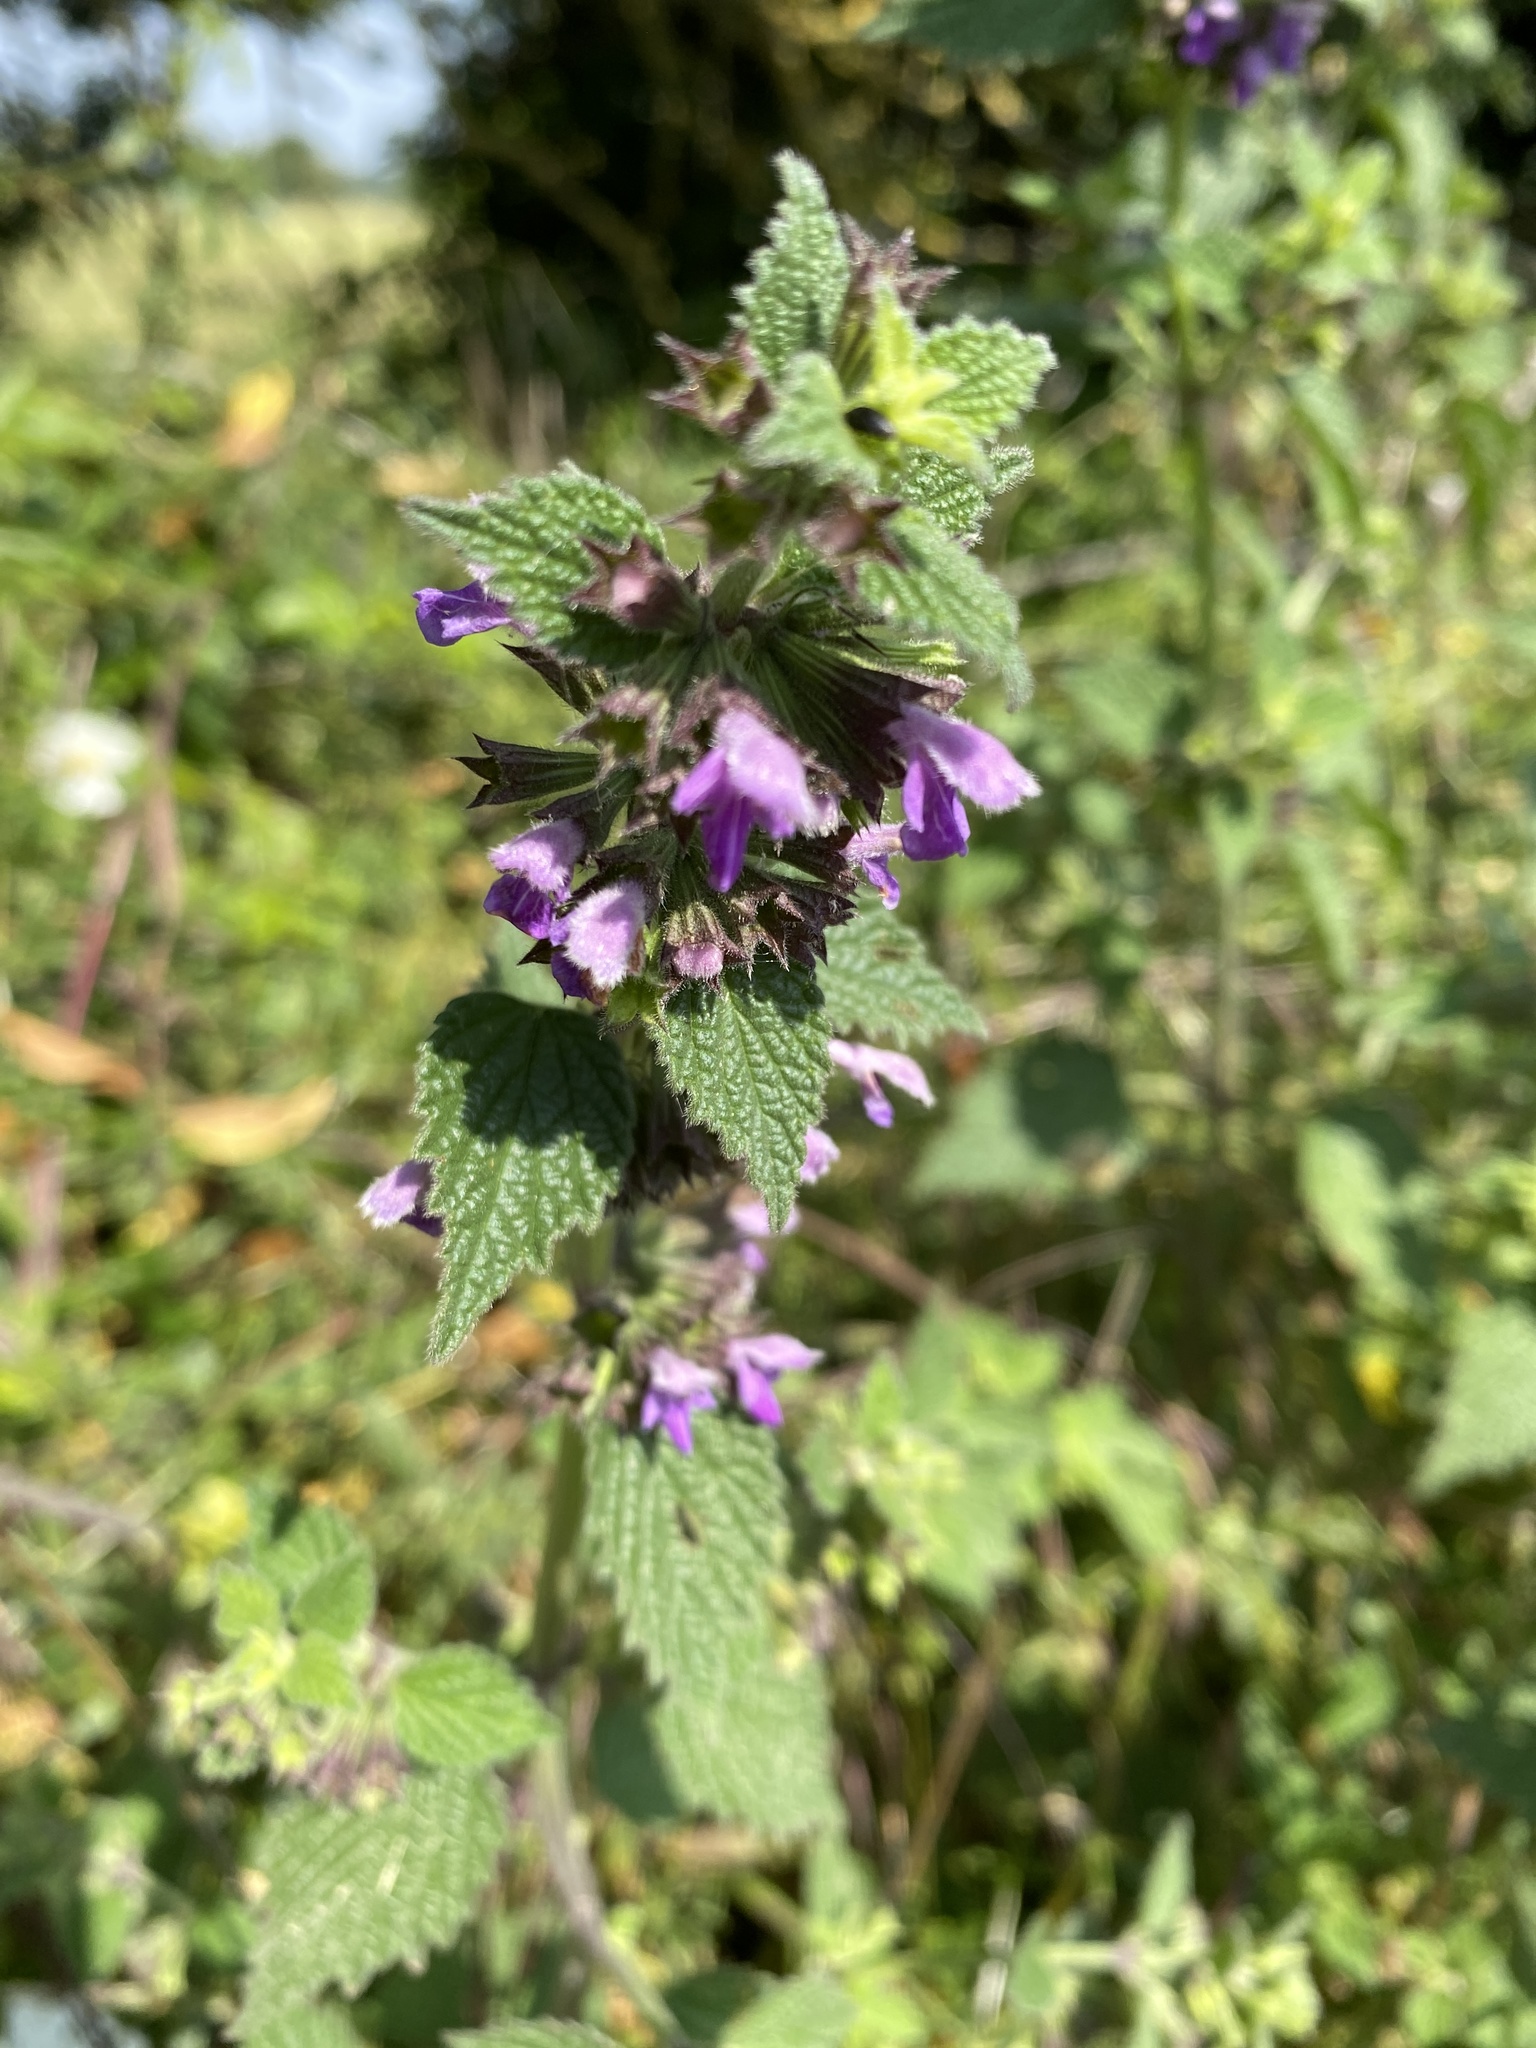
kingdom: Plantae
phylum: Tracheophyta
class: Magnoliopsida
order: Lamiales
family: Lamiaceae
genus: Ballota
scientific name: Ballota nigra
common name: Black horehound
